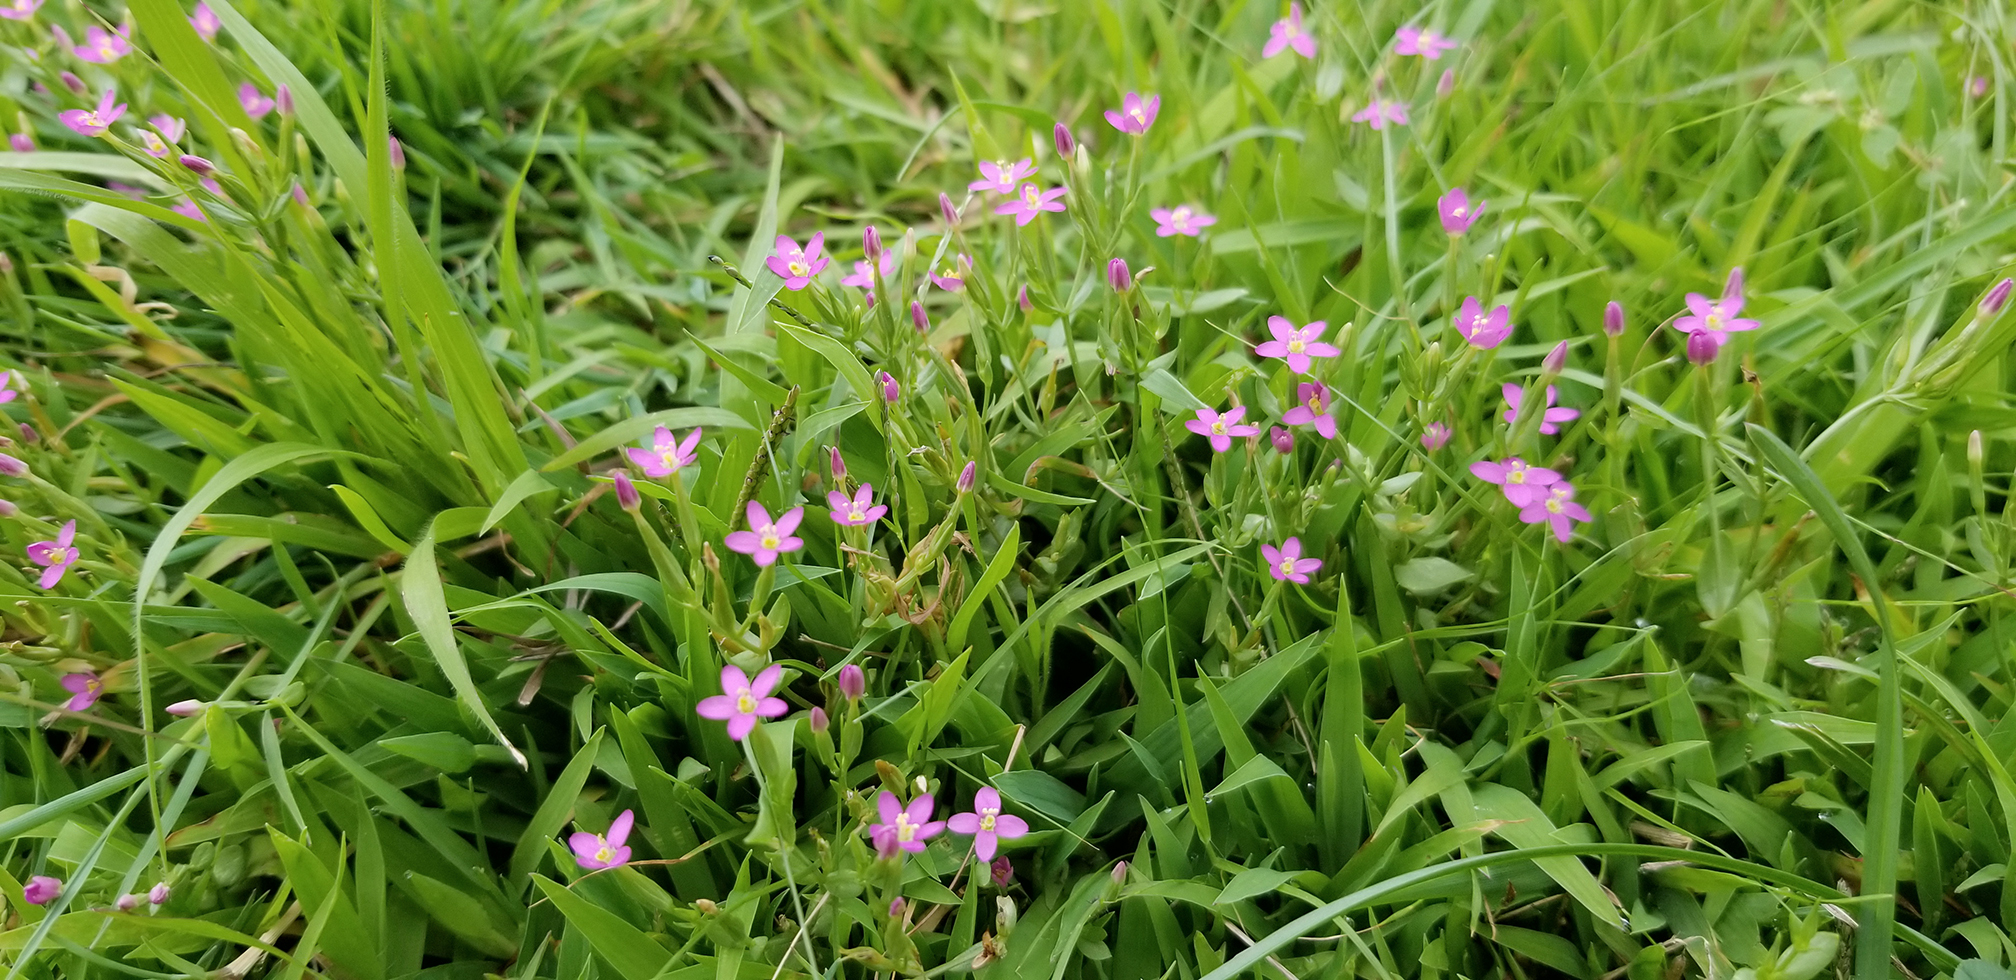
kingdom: Plantae
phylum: Tracheophyta
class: Magnoliopsida
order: Gentianales
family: Gentianaceae
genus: Centaurium
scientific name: Centaurium pulchellum
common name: Lesser centaury
